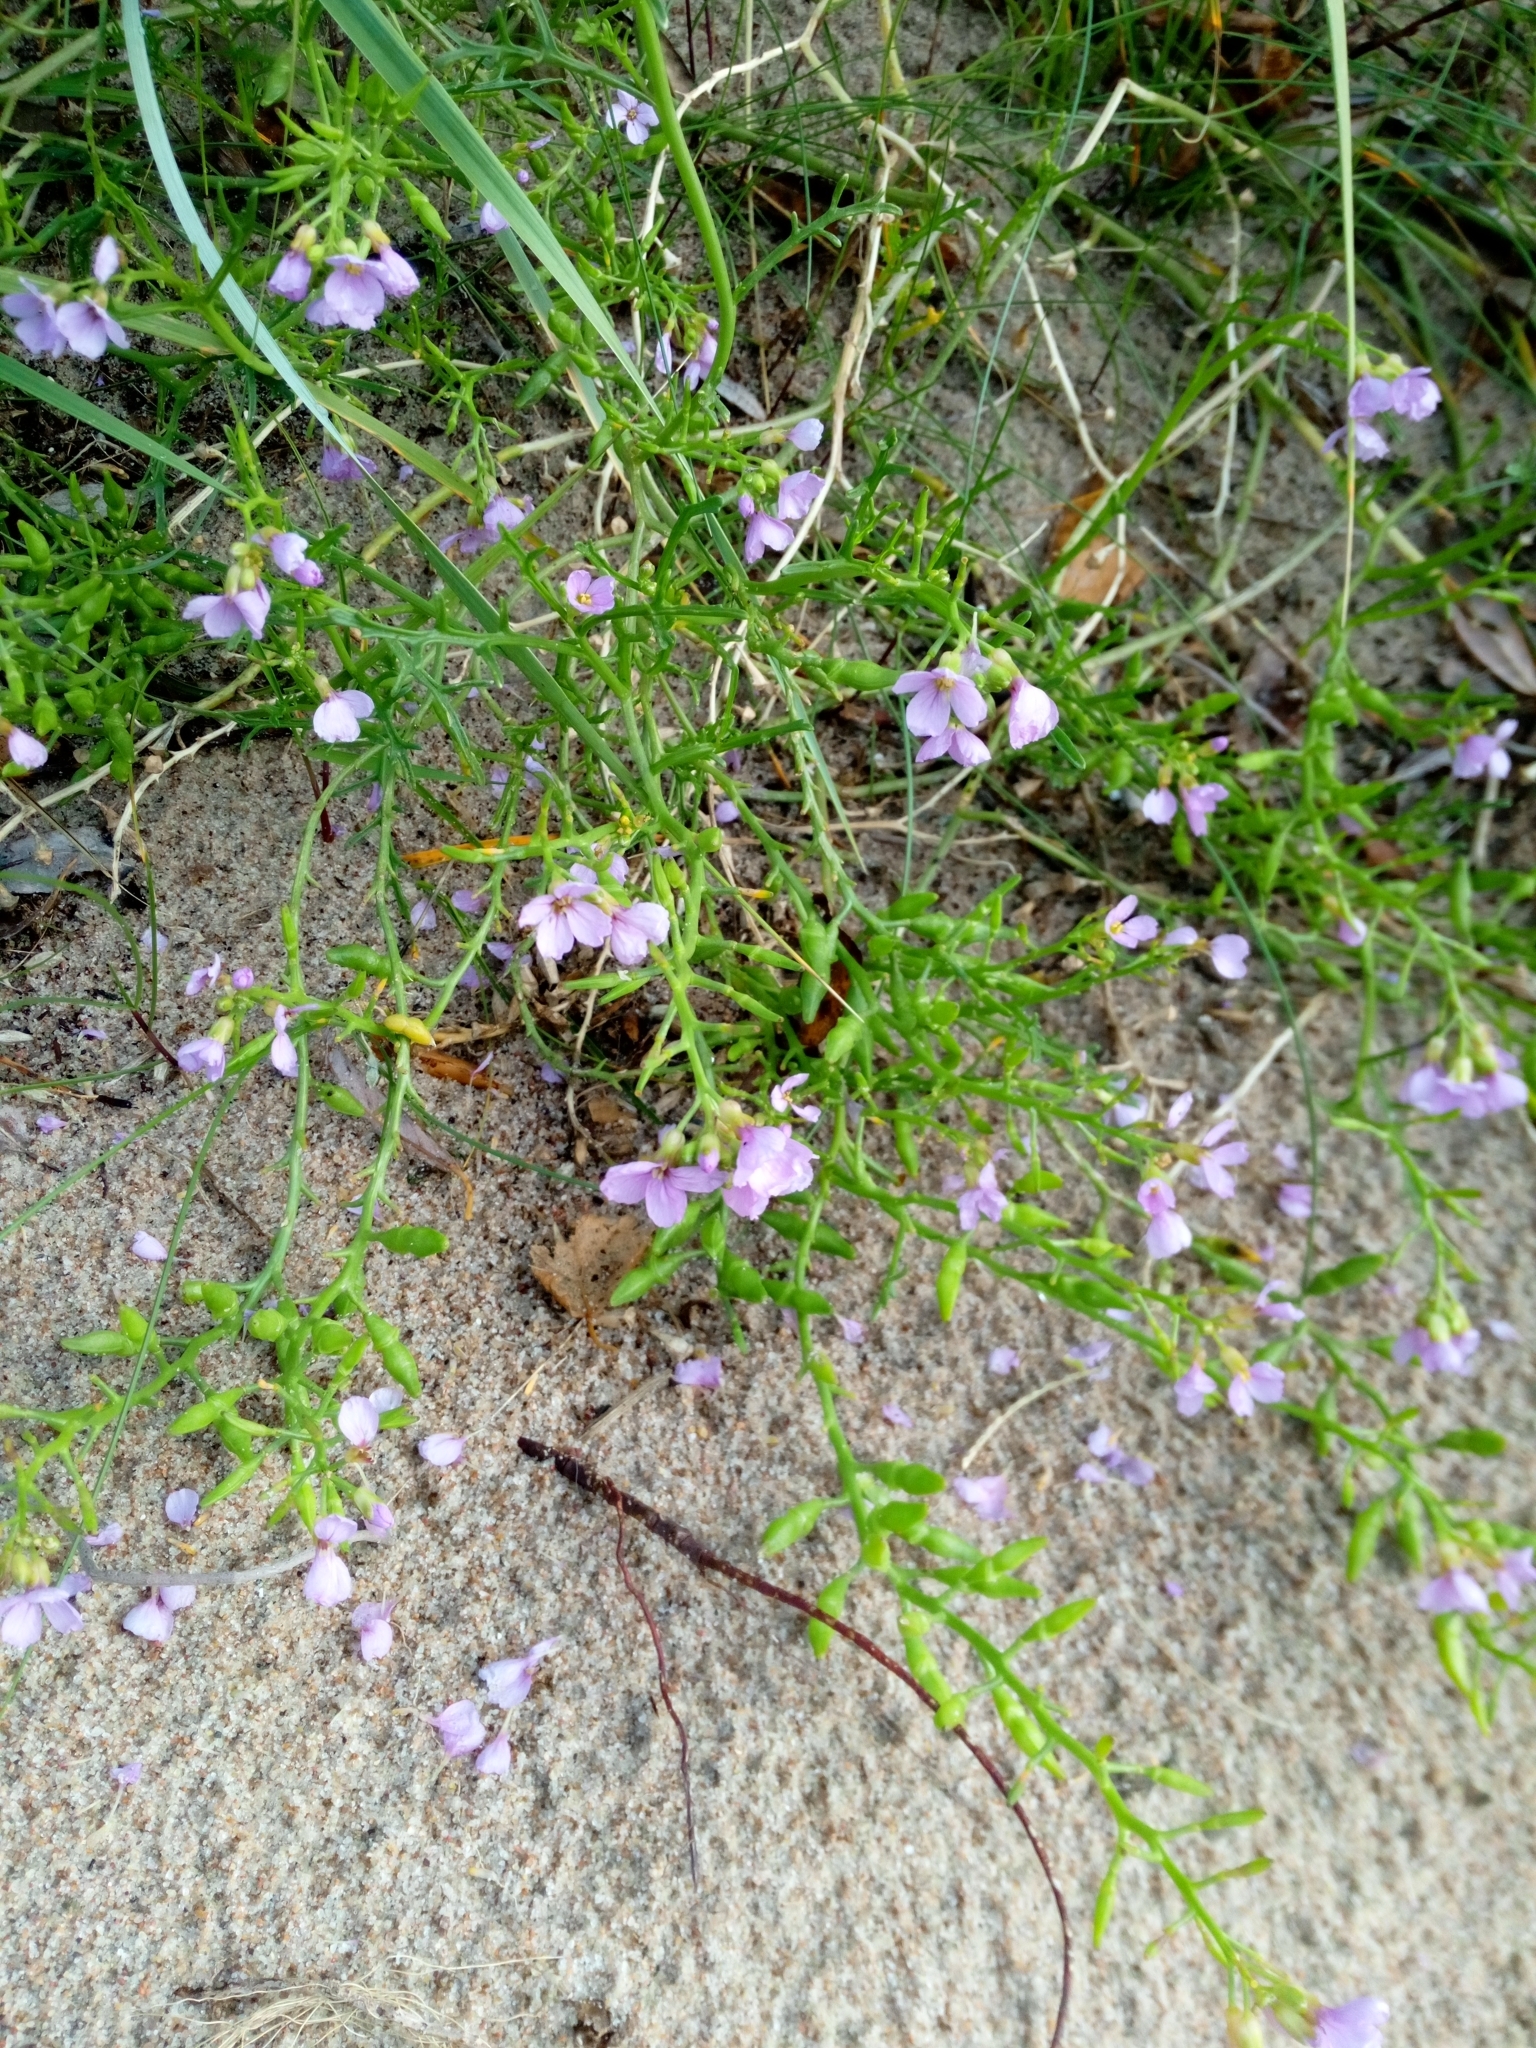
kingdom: Plantae
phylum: Tracheophyta
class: Magnoliopsida
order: Brassicales
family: Brassicaceae
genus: Cakile
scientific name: Cakile maritima
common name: Sea rocket
